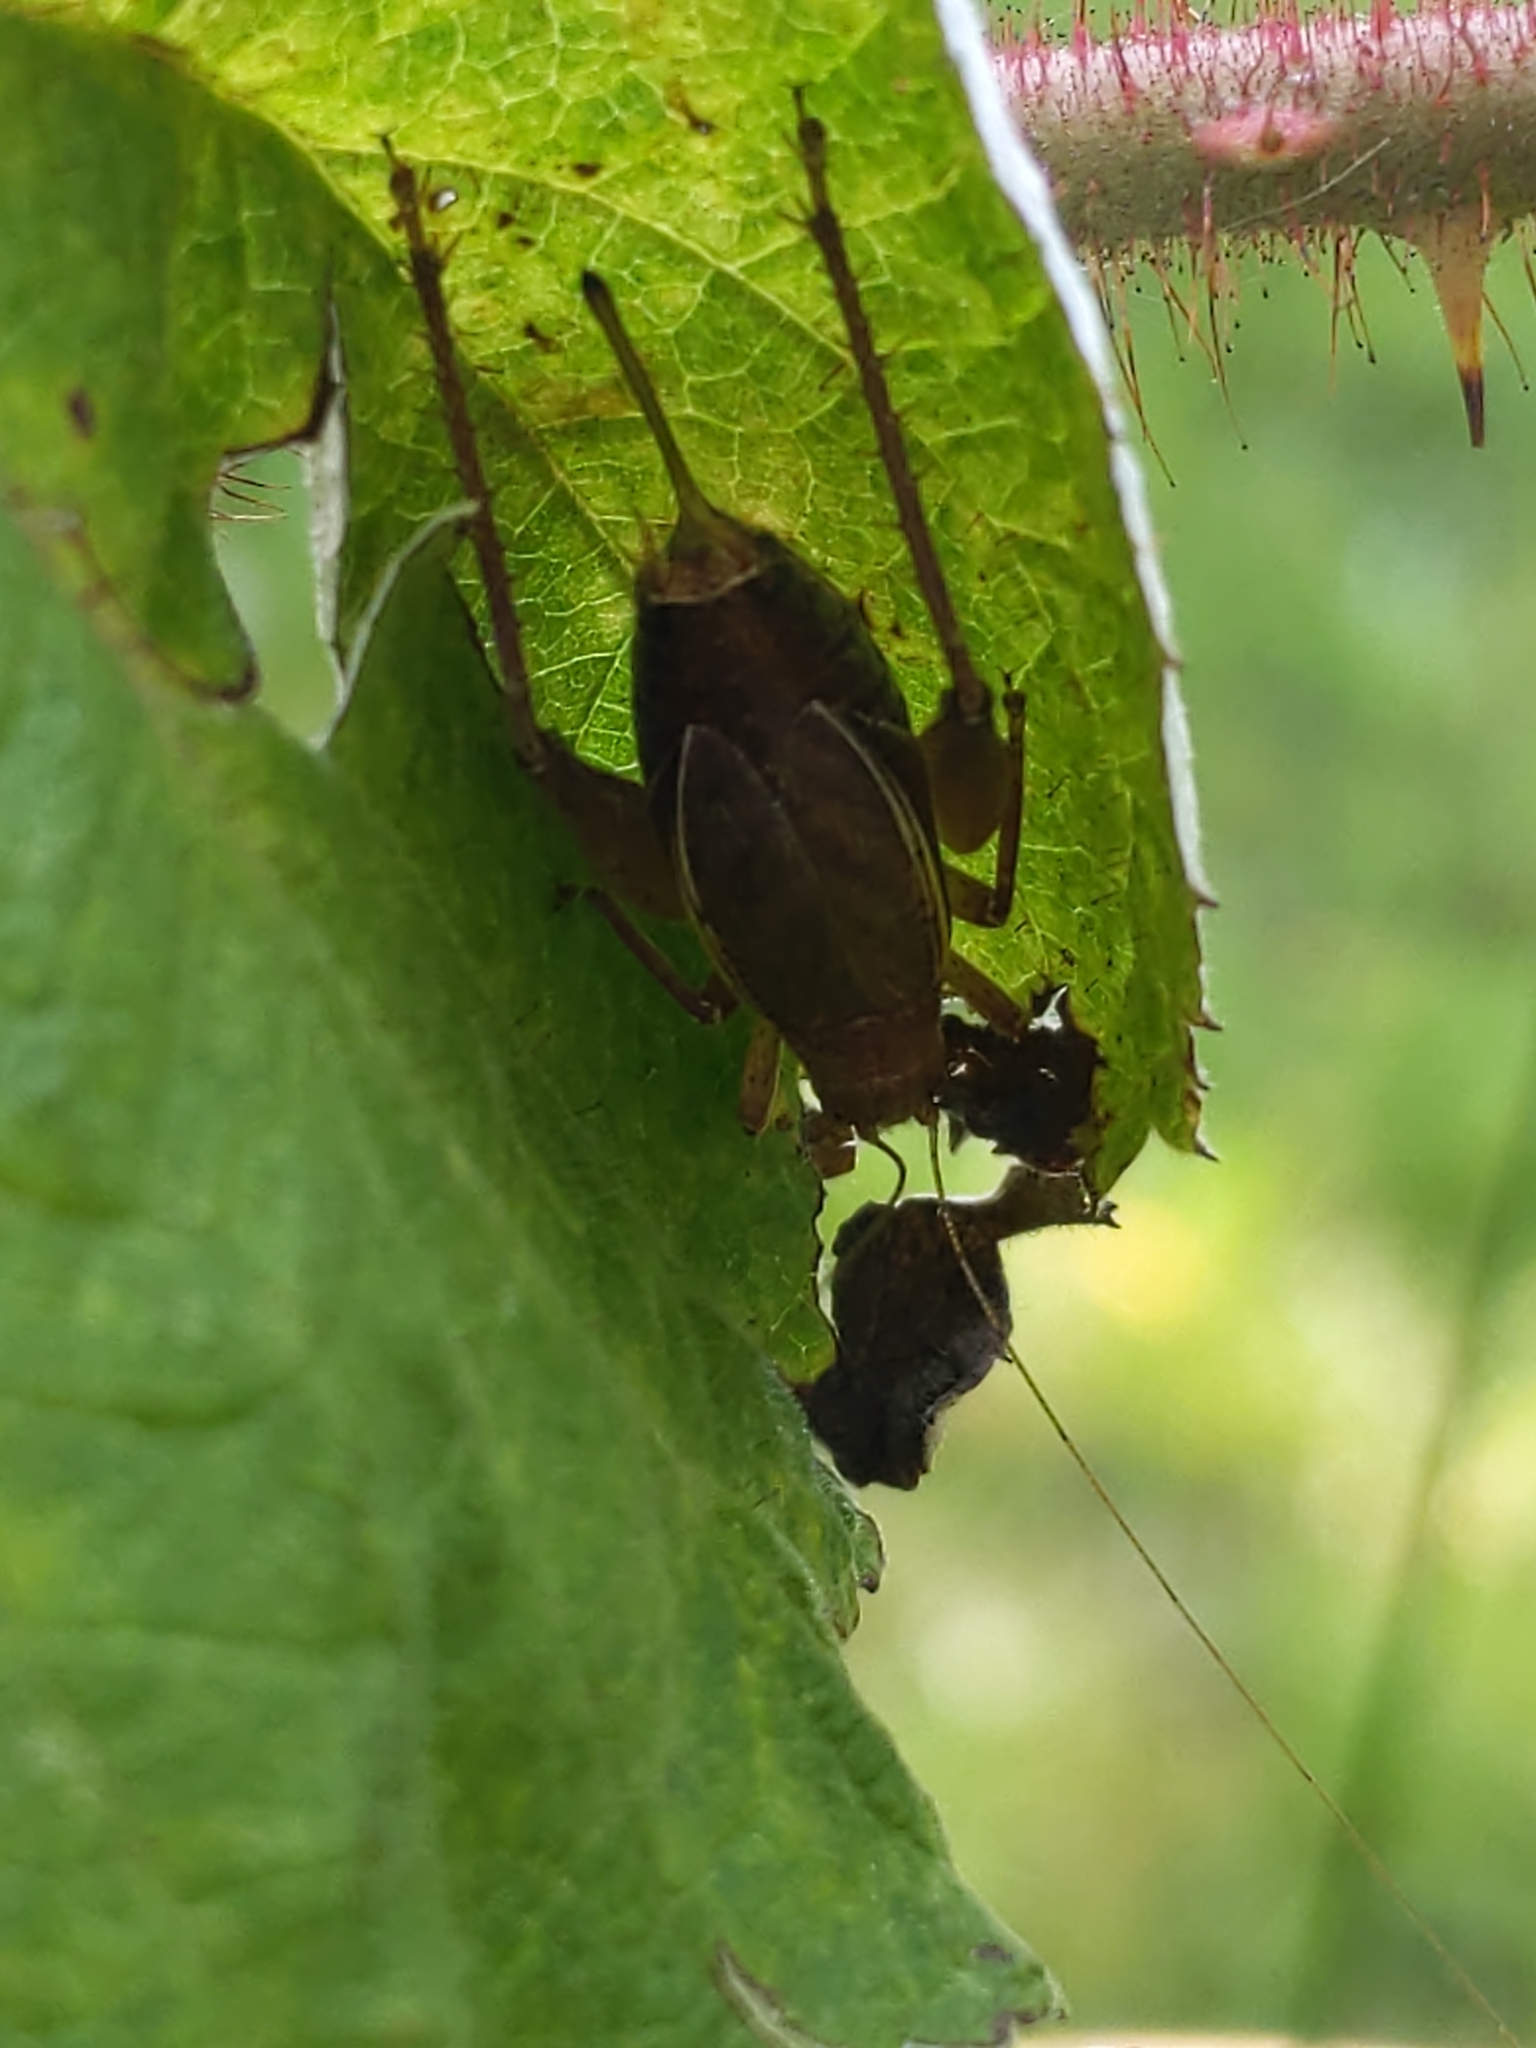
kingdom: Animalia
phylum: Arthropoda
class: Insecta
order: Orthoptera
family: Gryllidae
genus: Hapithus
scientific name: Hapithus agitator
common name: Restless bush cricket
